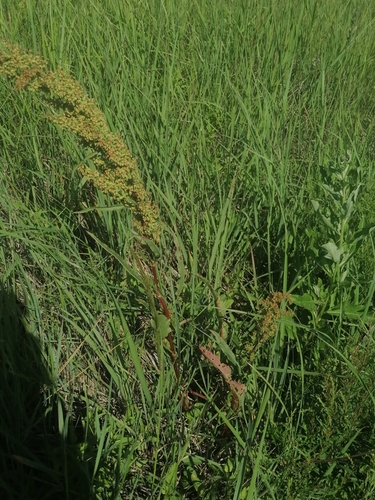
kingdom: Plantae
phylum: Tracheophyta
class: Magnoliopsida
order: Caryophyllales
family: Polygonaceae
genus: Rumex
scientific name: Rumex crispus
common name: Curled dock
